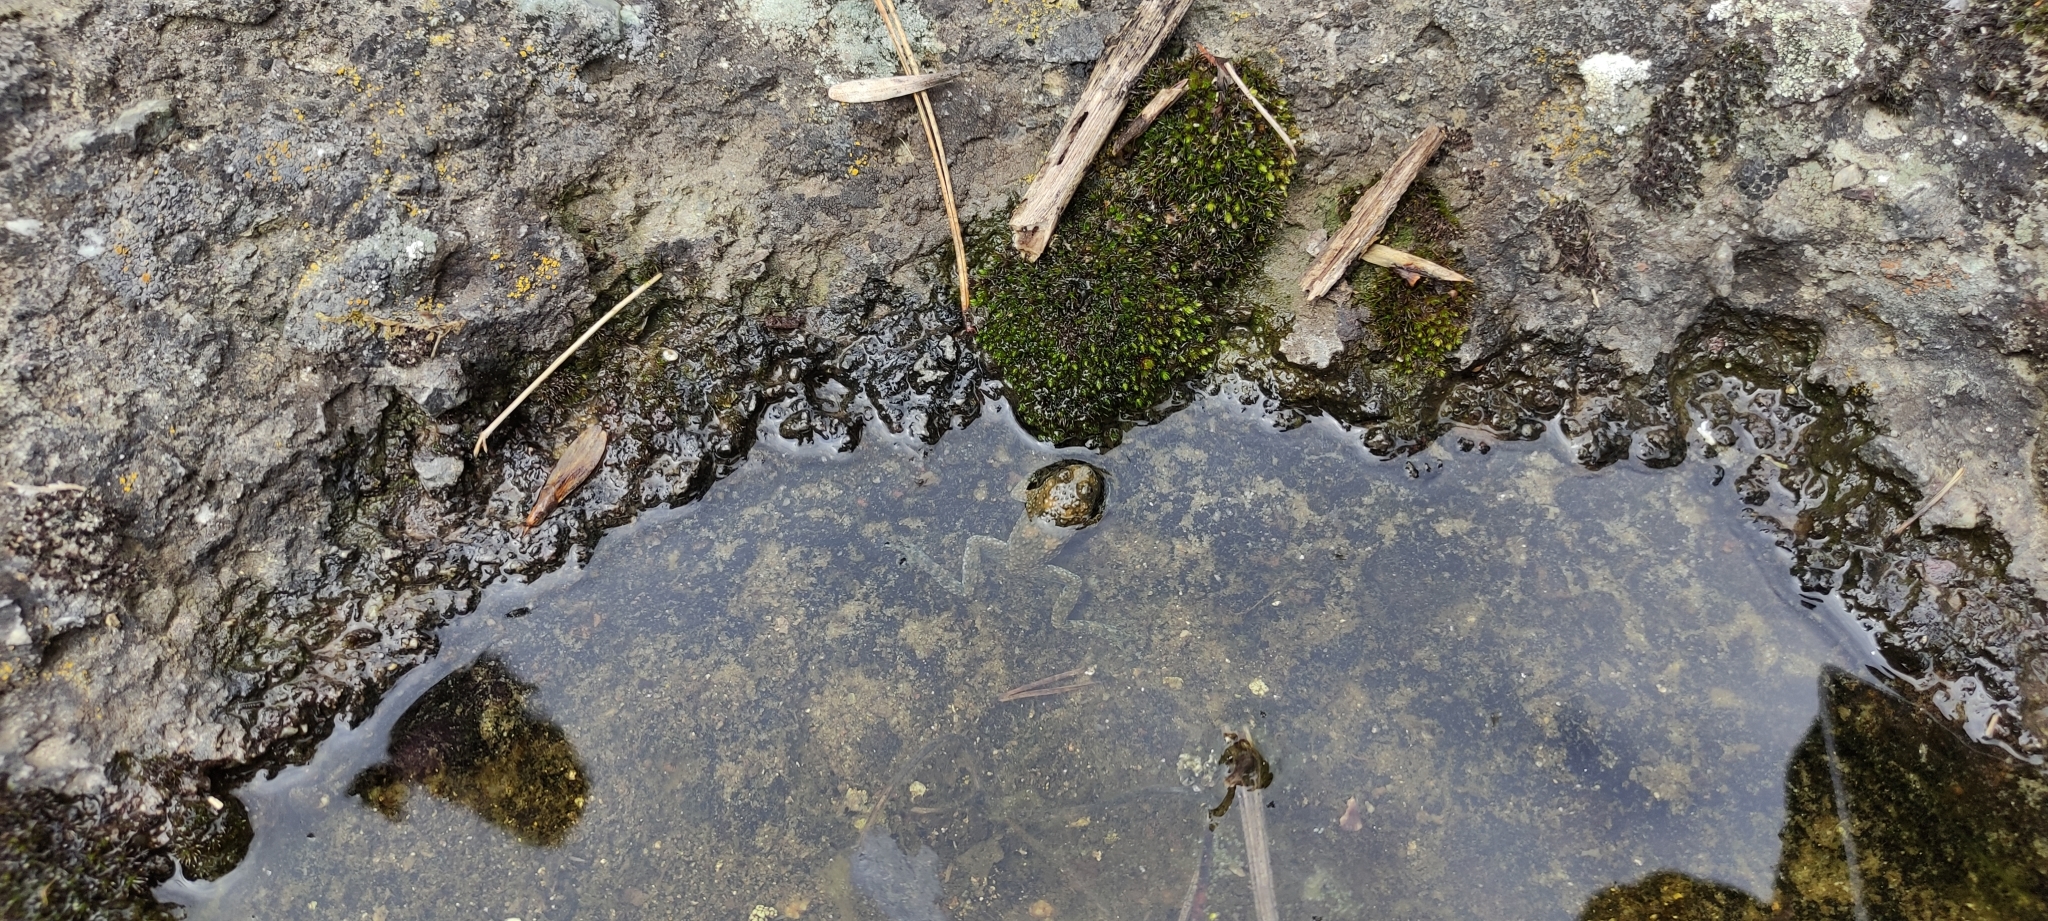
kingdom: Animalia
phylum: Chordata
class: Amphibia
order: Anura
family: Bombinatoridae
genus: Bombina
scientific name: Bombina variegata
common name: Yellow-bellied toad
